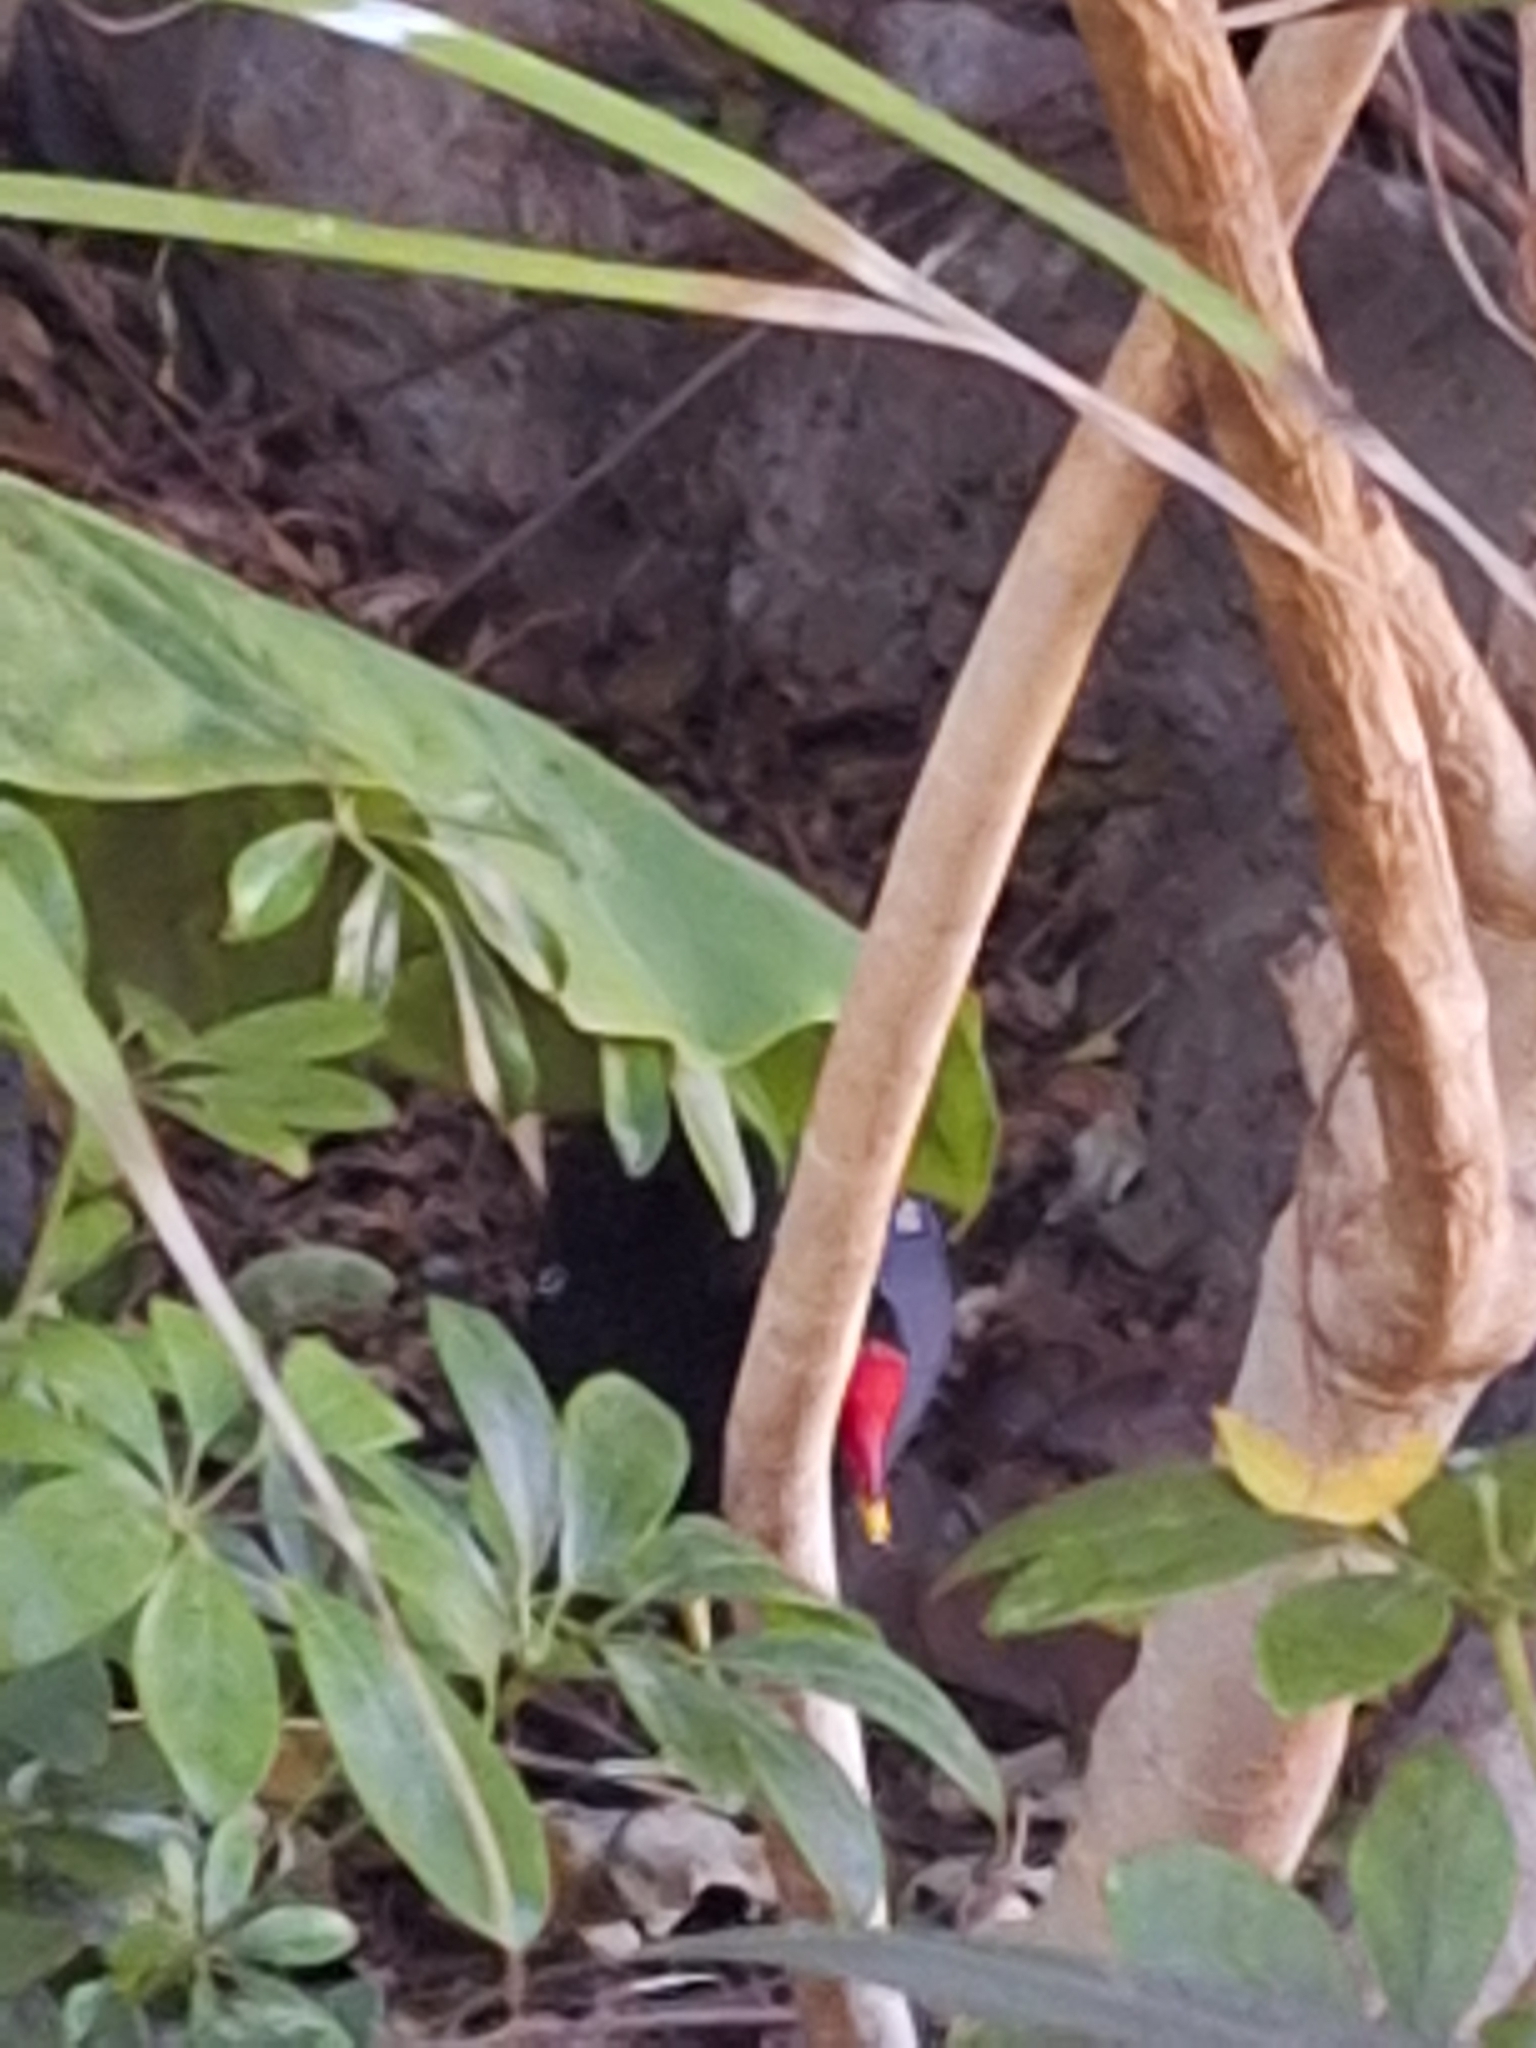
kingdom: Animalia
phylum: Chordata
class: Aves
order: Gruiformes
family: Rallidae
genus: Gallinula
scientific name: Gallinula chloropus
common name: Common moorhen
